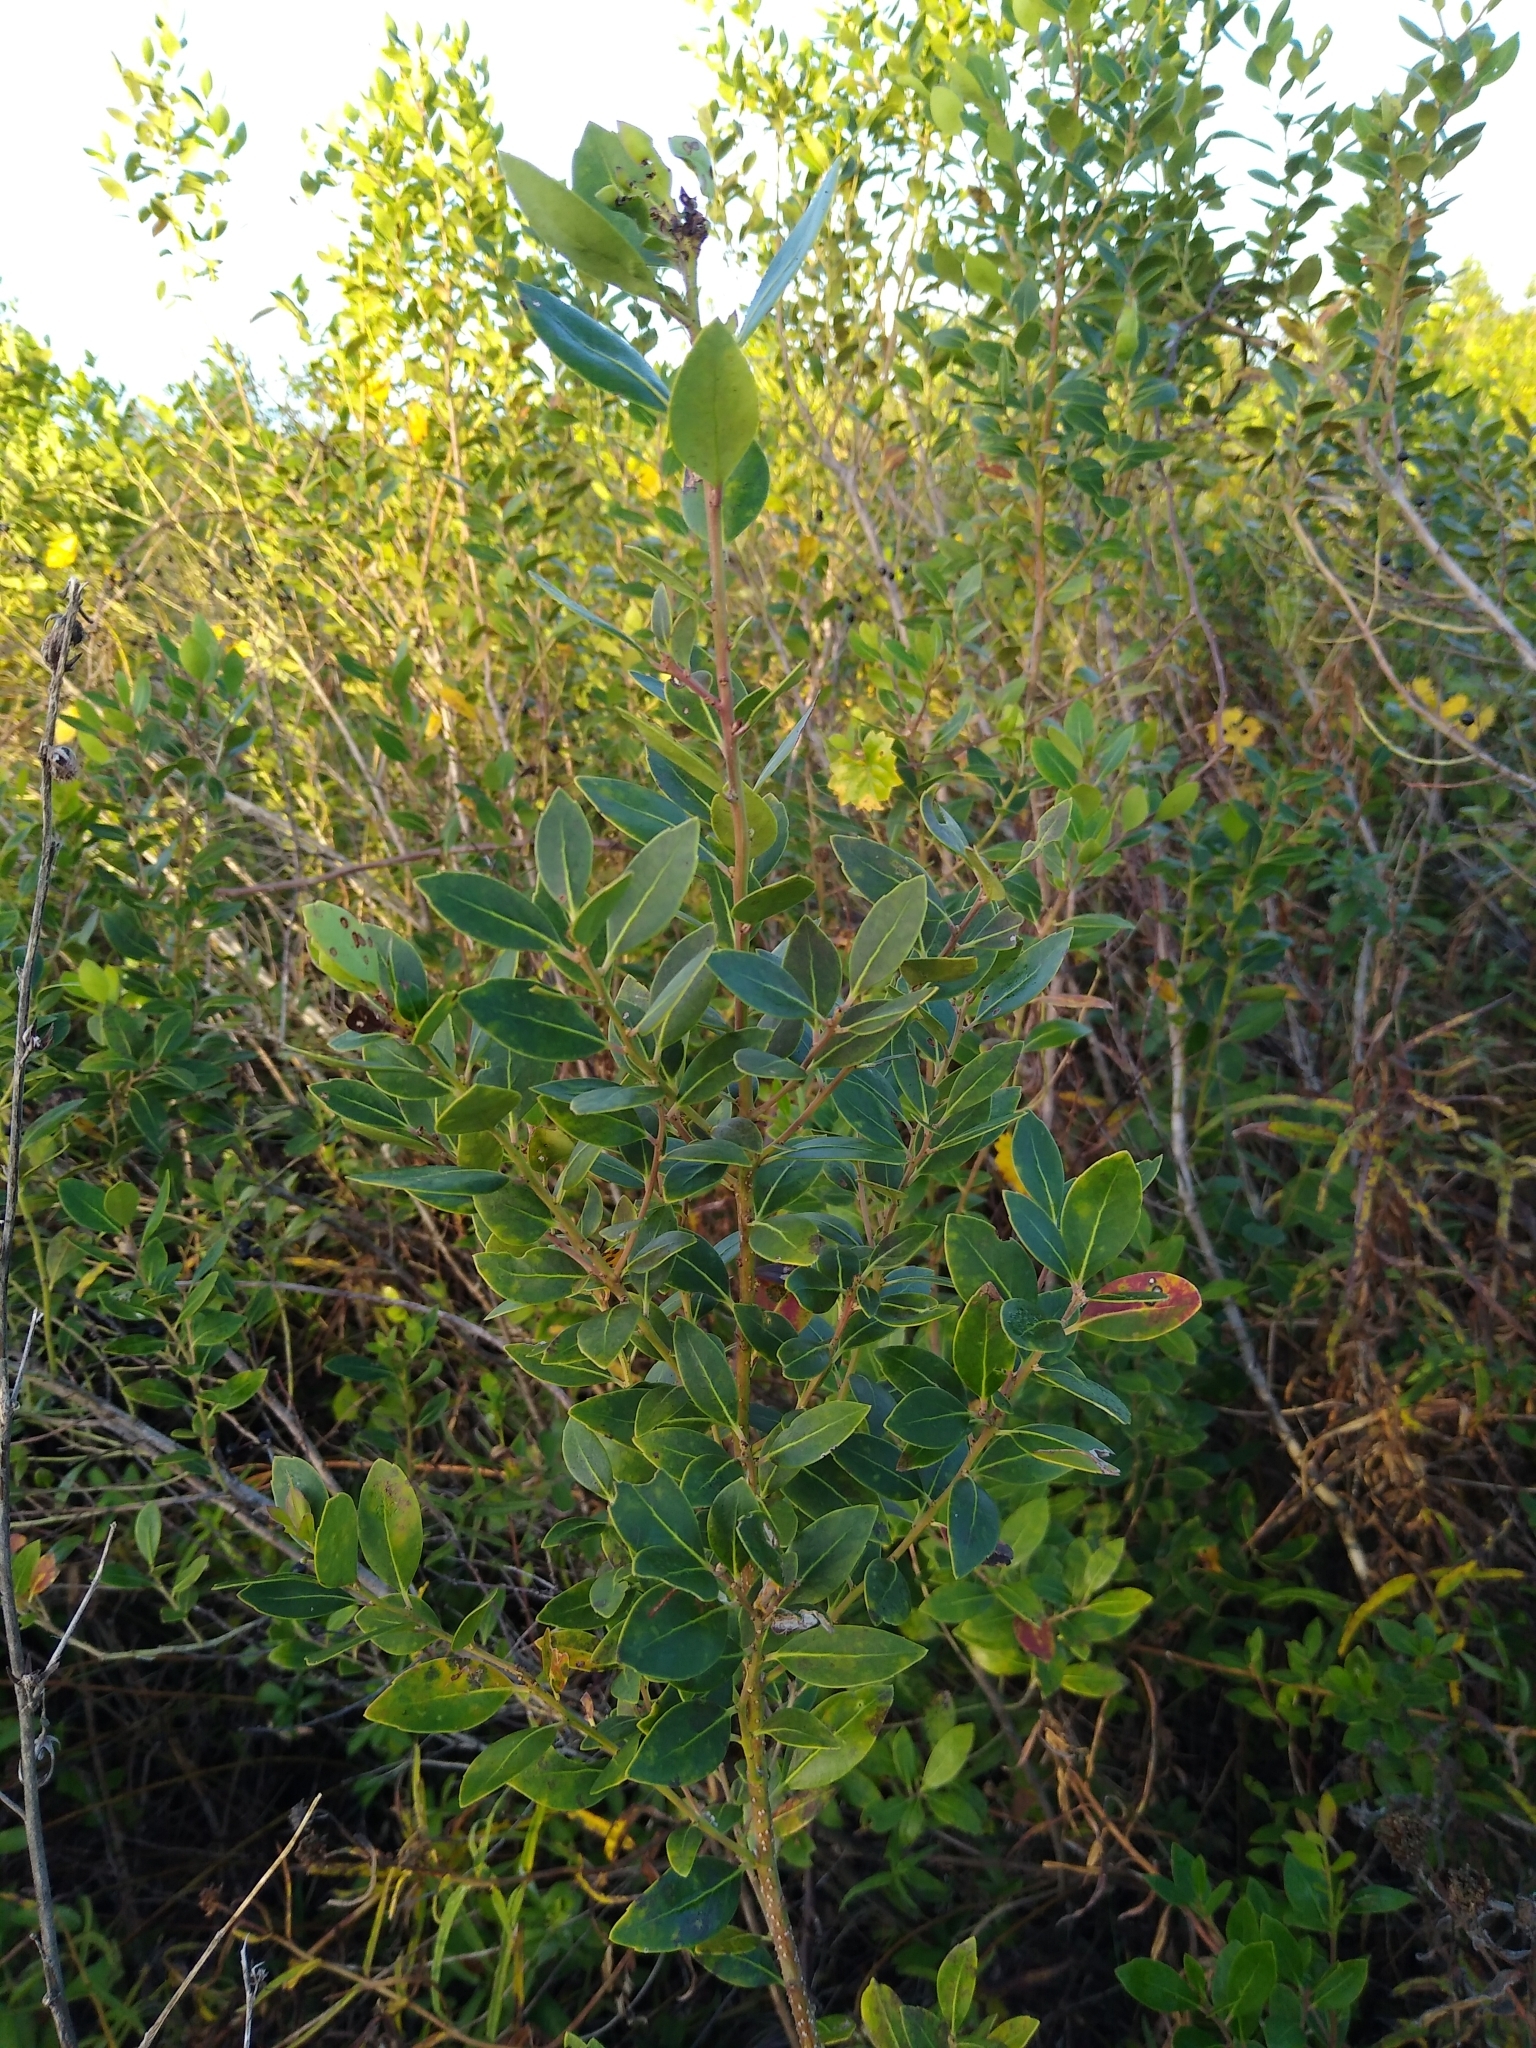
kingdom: Plantae
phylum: Tracheophyta
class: Magnoliopsida
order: Aquifoliales
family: Aquifoliaceae
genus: Ilex
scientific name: Ilex glabra
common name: Bitter gallberry
